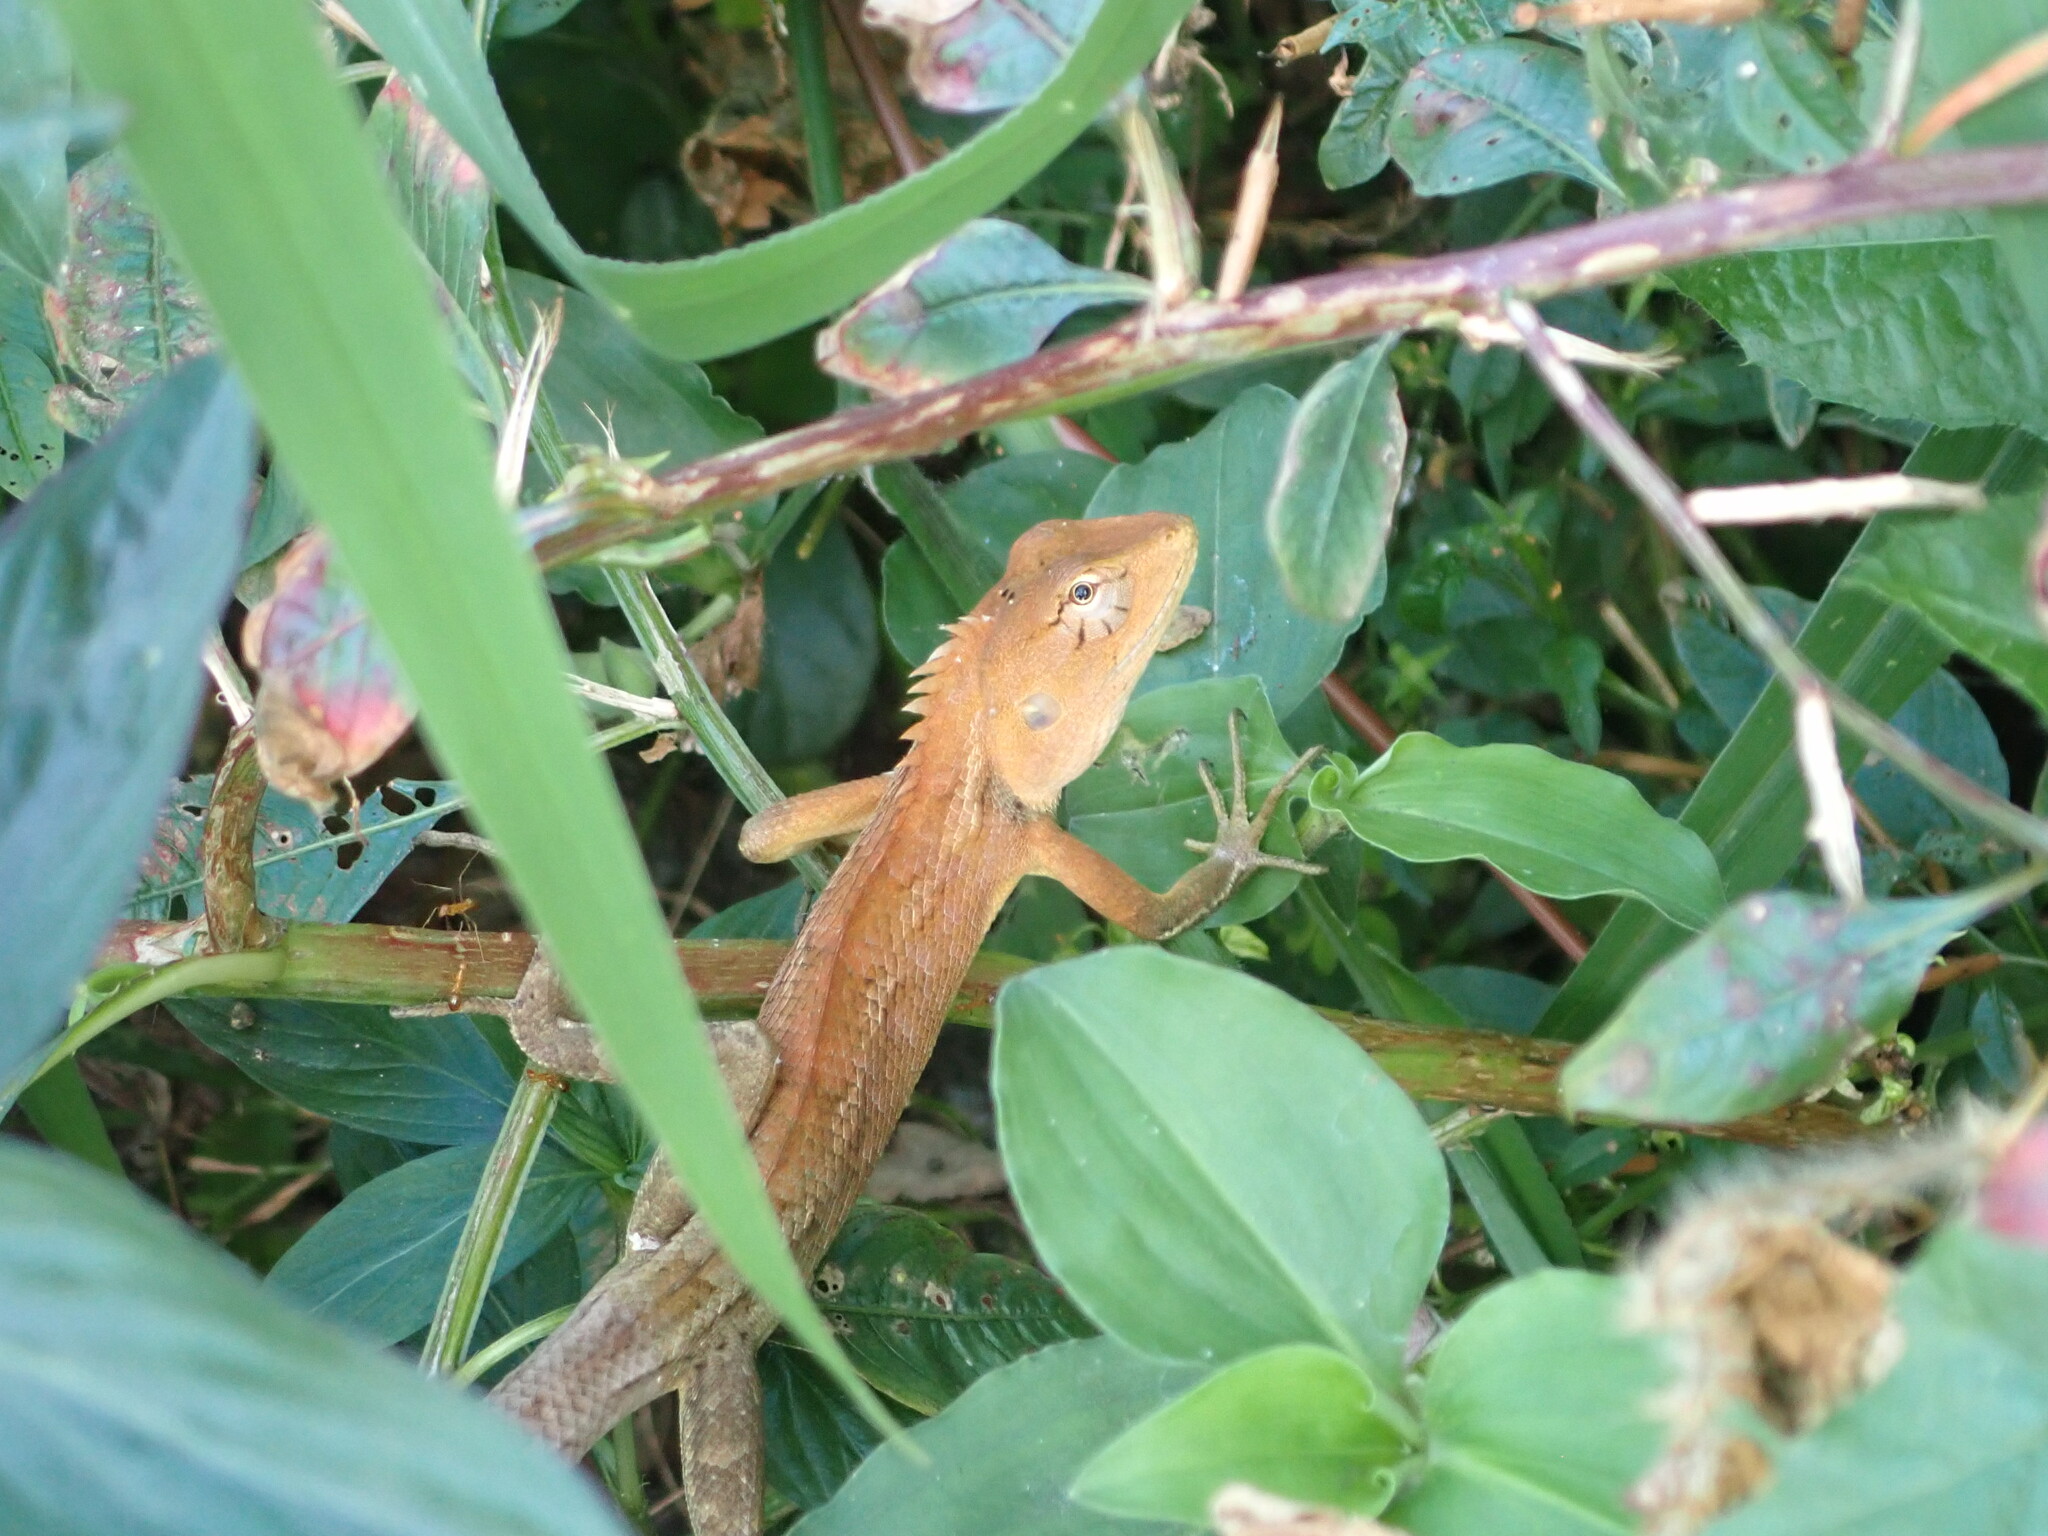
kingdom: Animalia
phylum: Chordata
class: Squamata
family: Agamidae
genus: Calotes
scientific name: Calotes versicolor
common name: Oriental garden lizard
